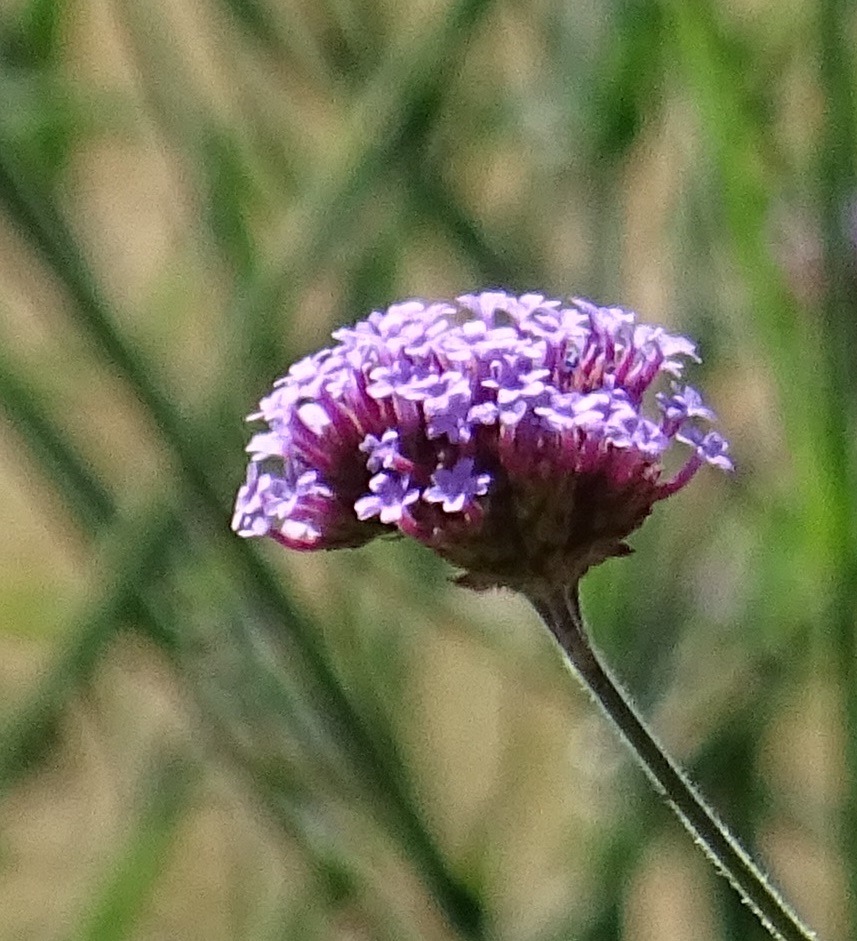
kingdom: Plantae
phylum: Tracheophyta
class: Magnoliopsida
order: Lamiales
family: Verbenaceae
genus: Verbena
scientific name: Verbena bonariensis
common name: Purpletop vervain
